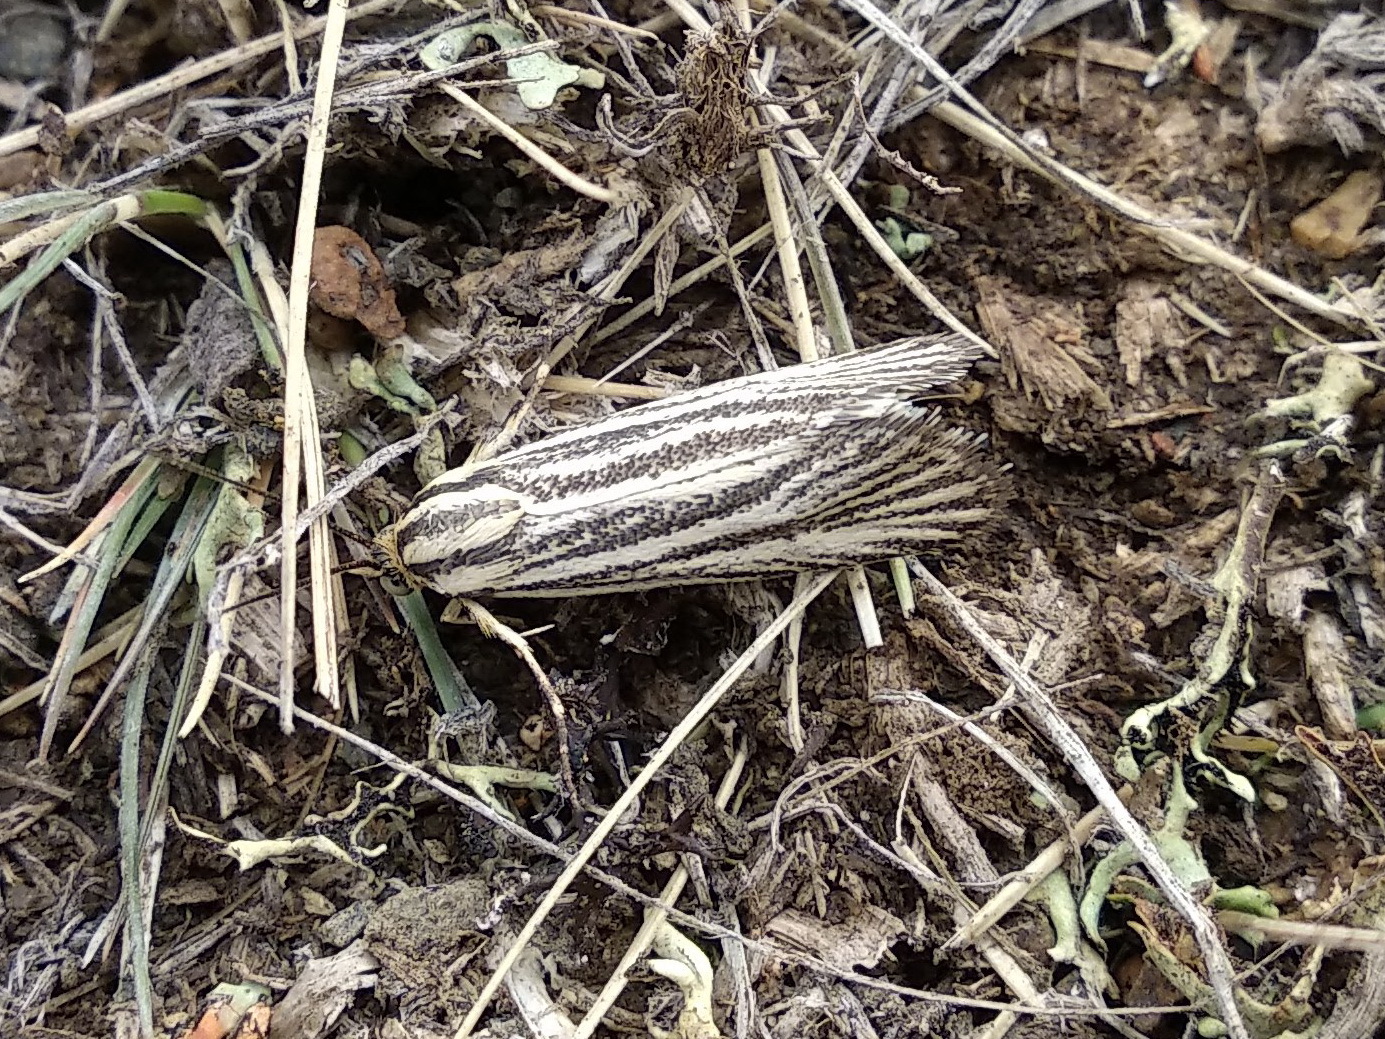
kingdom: Animalia
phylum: Arthropoda
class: Insecta
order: Lepidoptera
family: Brachodidae
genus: Atychia
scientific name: Atychia
